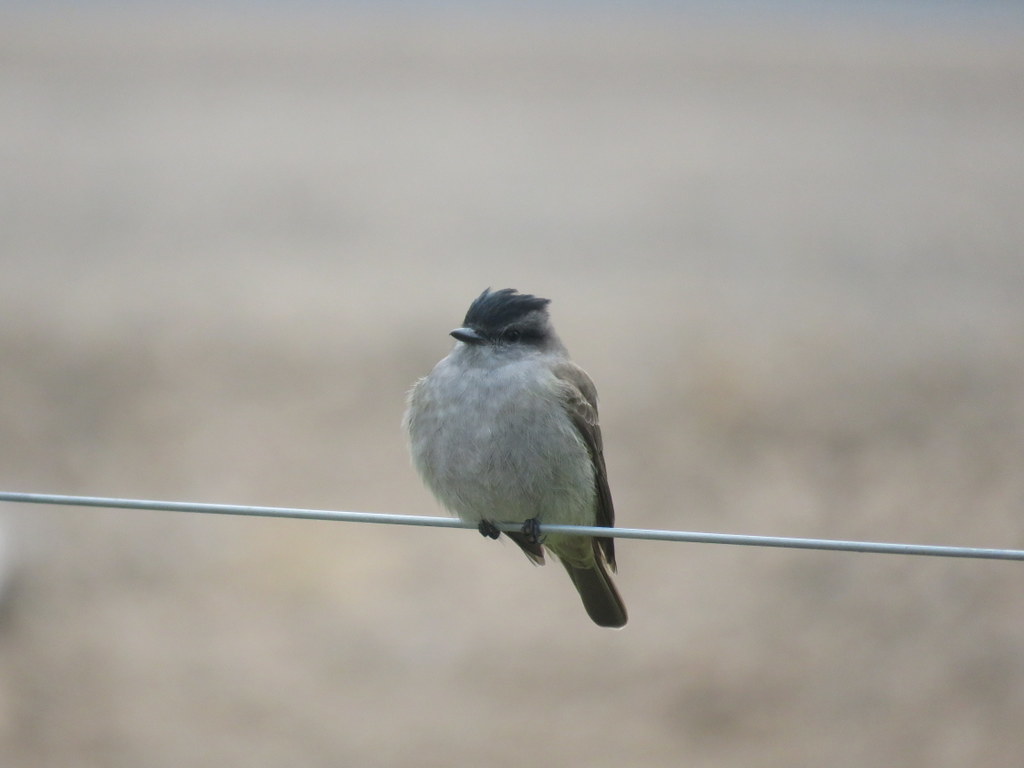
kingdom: Animalia
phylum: Chordata
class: Aves
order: Passeriformes
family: Tyrannidae
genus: Empidonomus
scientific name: Empidonomus aurantioatrocristatus
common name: Crowned slaty flycatcher
